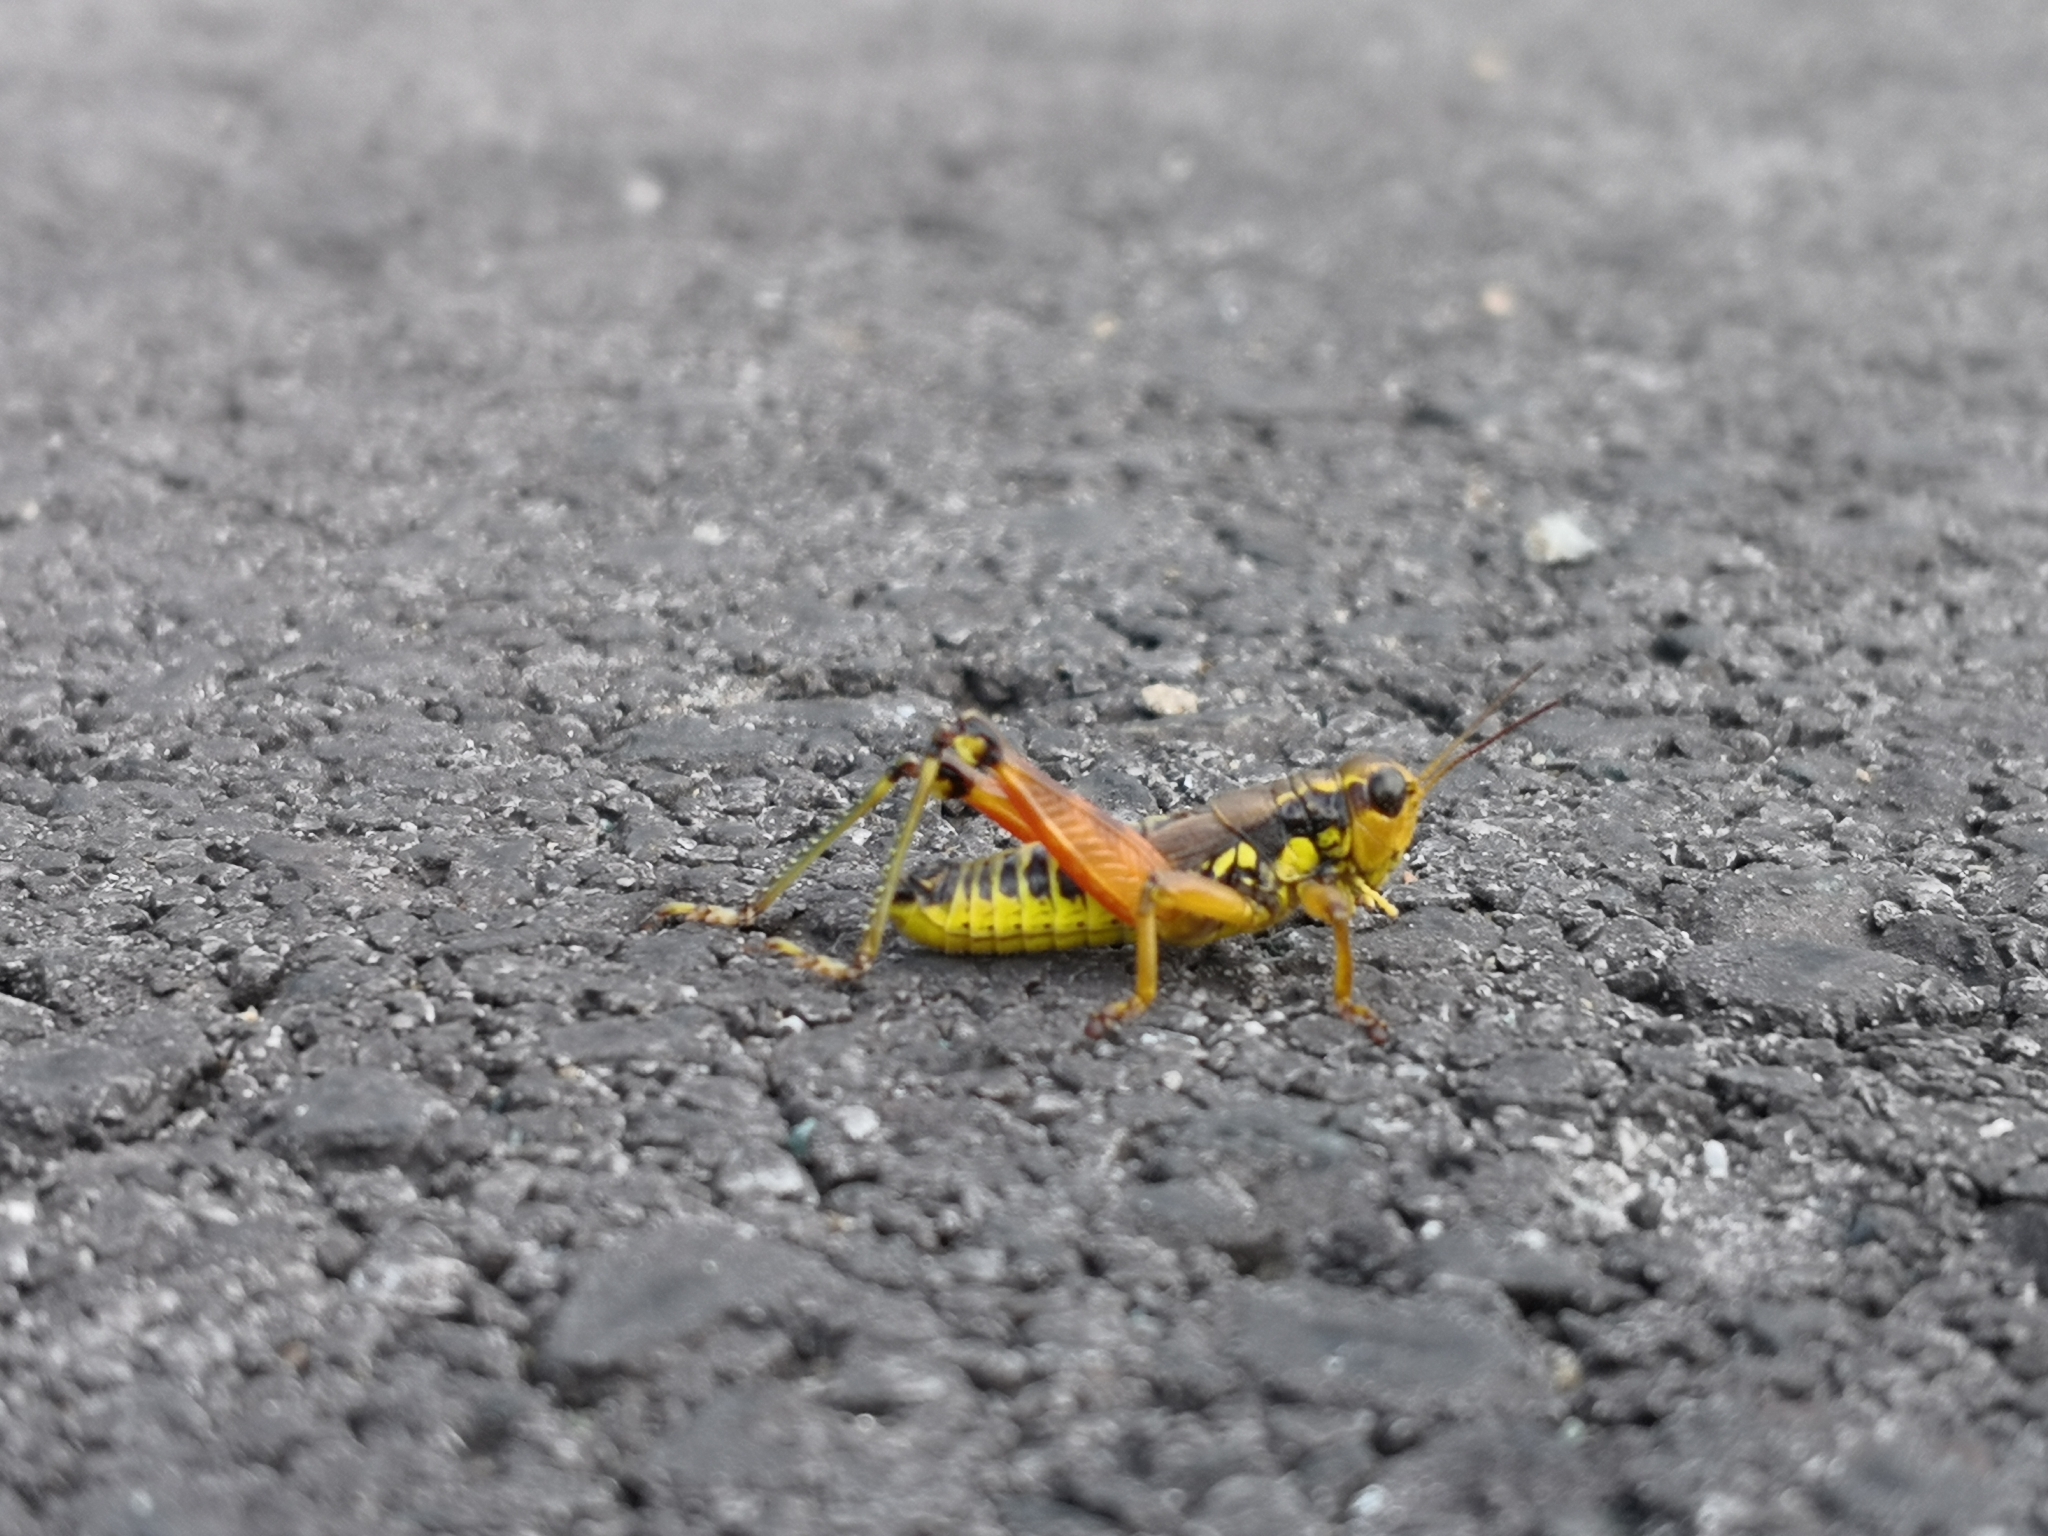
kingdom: Animalia
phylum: Arthropoda
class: Insecta
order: Orthoptera
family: Acrididae
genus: Podisma
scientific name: Podisma pedestris
